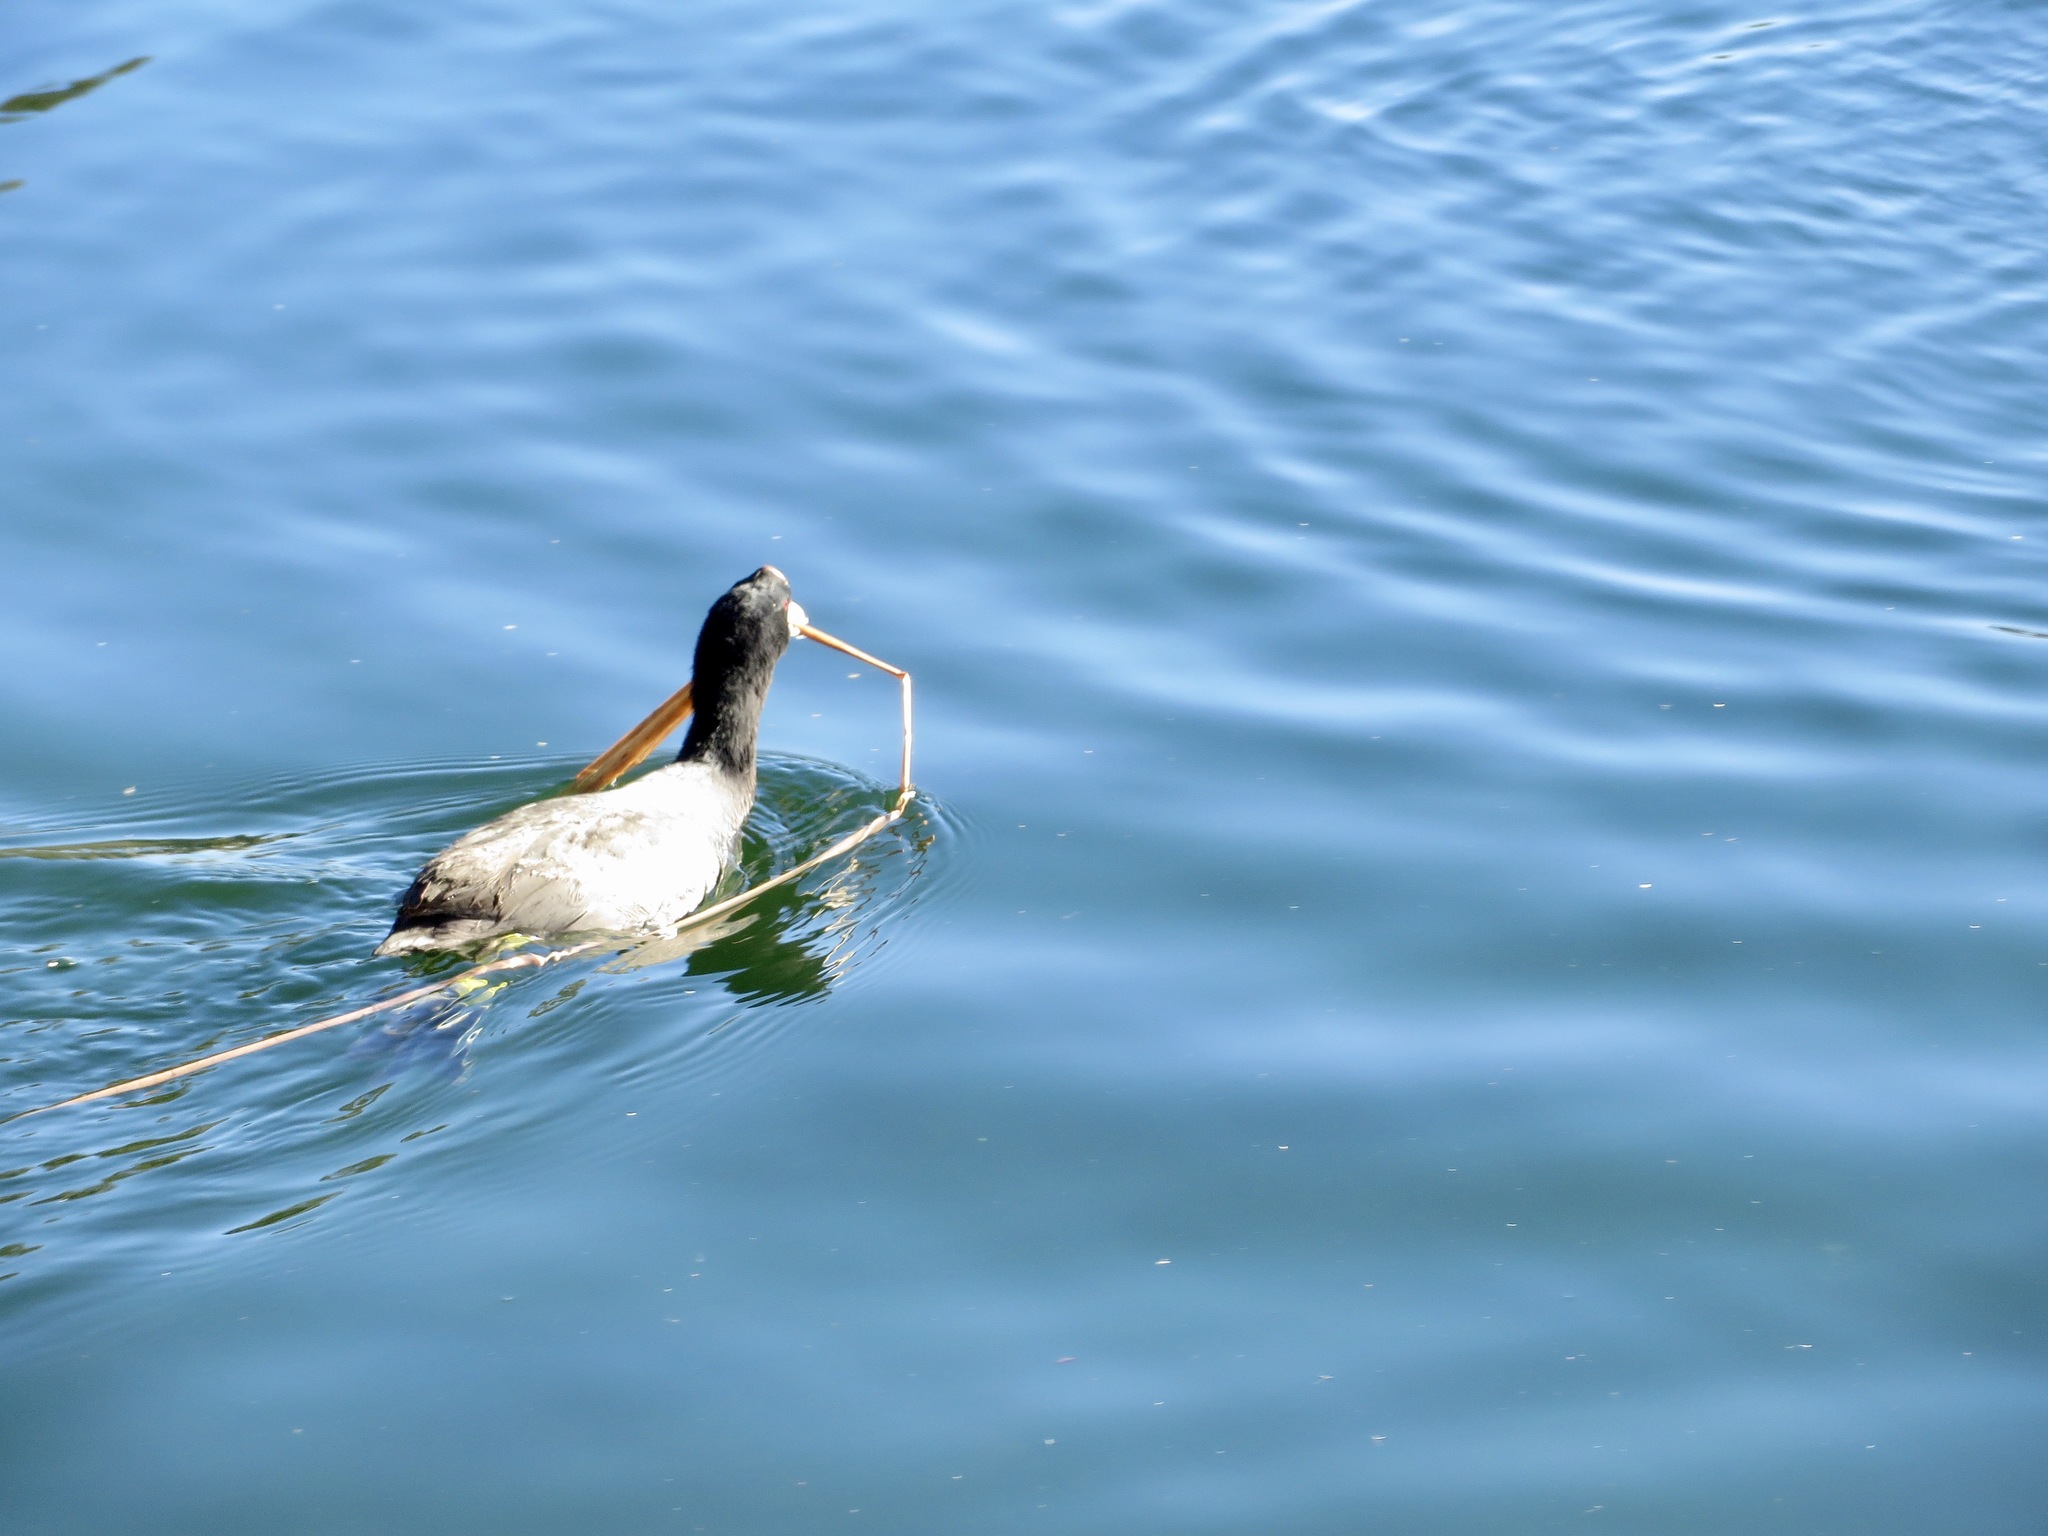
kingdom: Animalia
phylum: Chordata
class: Aves
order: Gruiformes
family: Rallidae
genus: Fulica
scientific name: Fulica americana
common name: American coot
